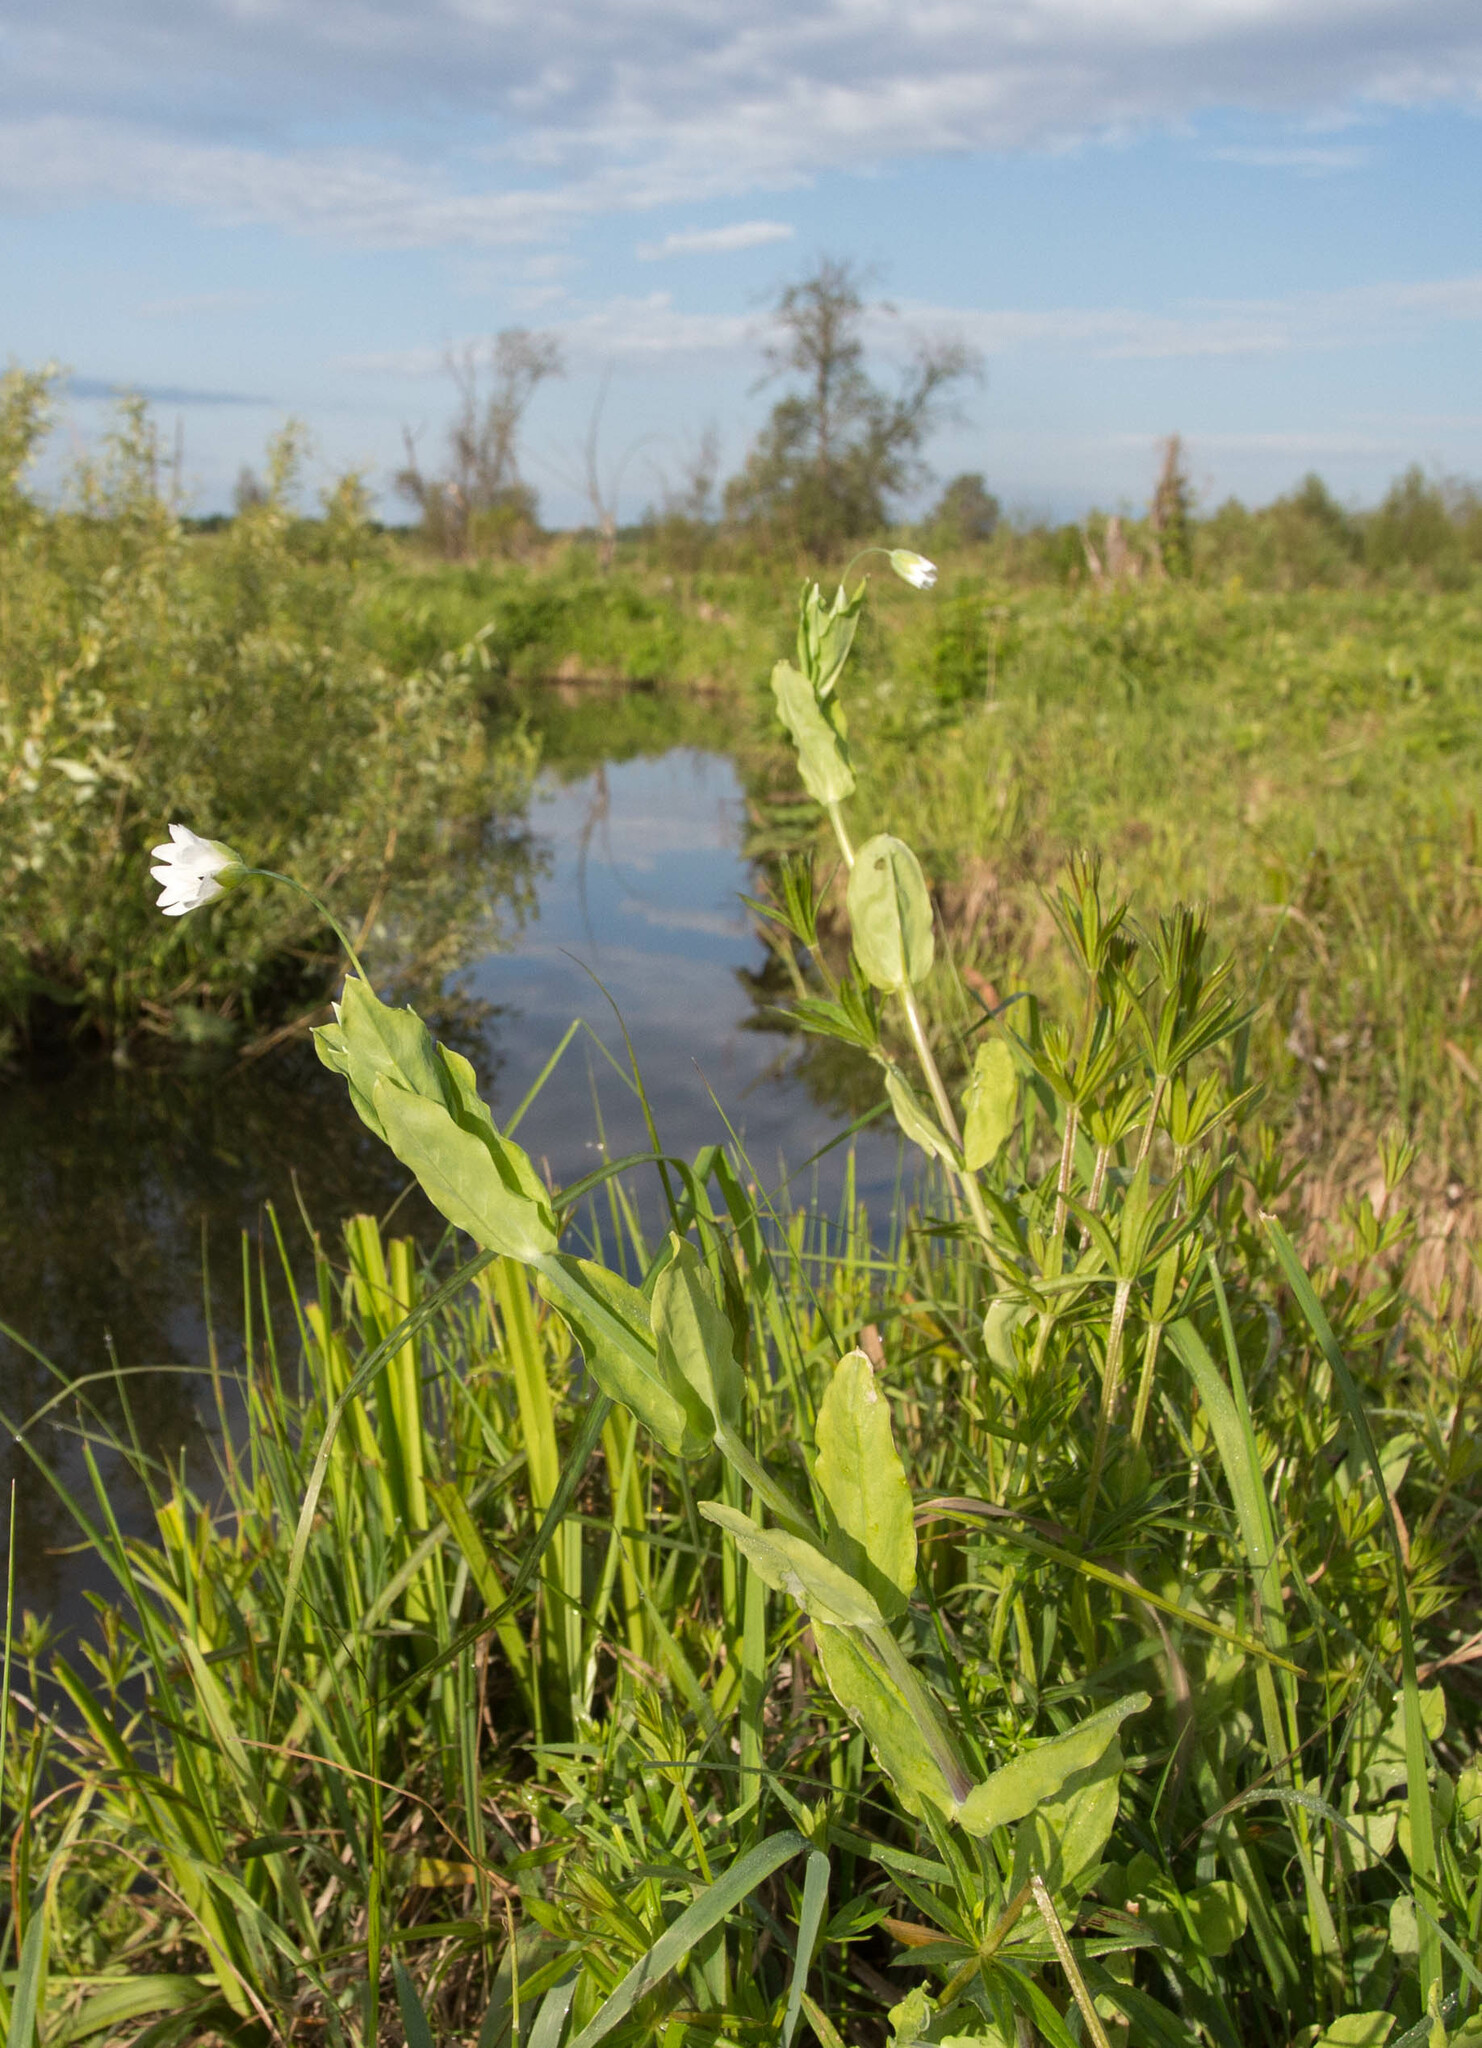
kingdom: Plantae
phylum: Tracheophyta
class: Magnoliopsida
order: Caryophyllales
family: Caryophyllaceae
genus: Cerastium
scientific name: Cerastium davuricum
